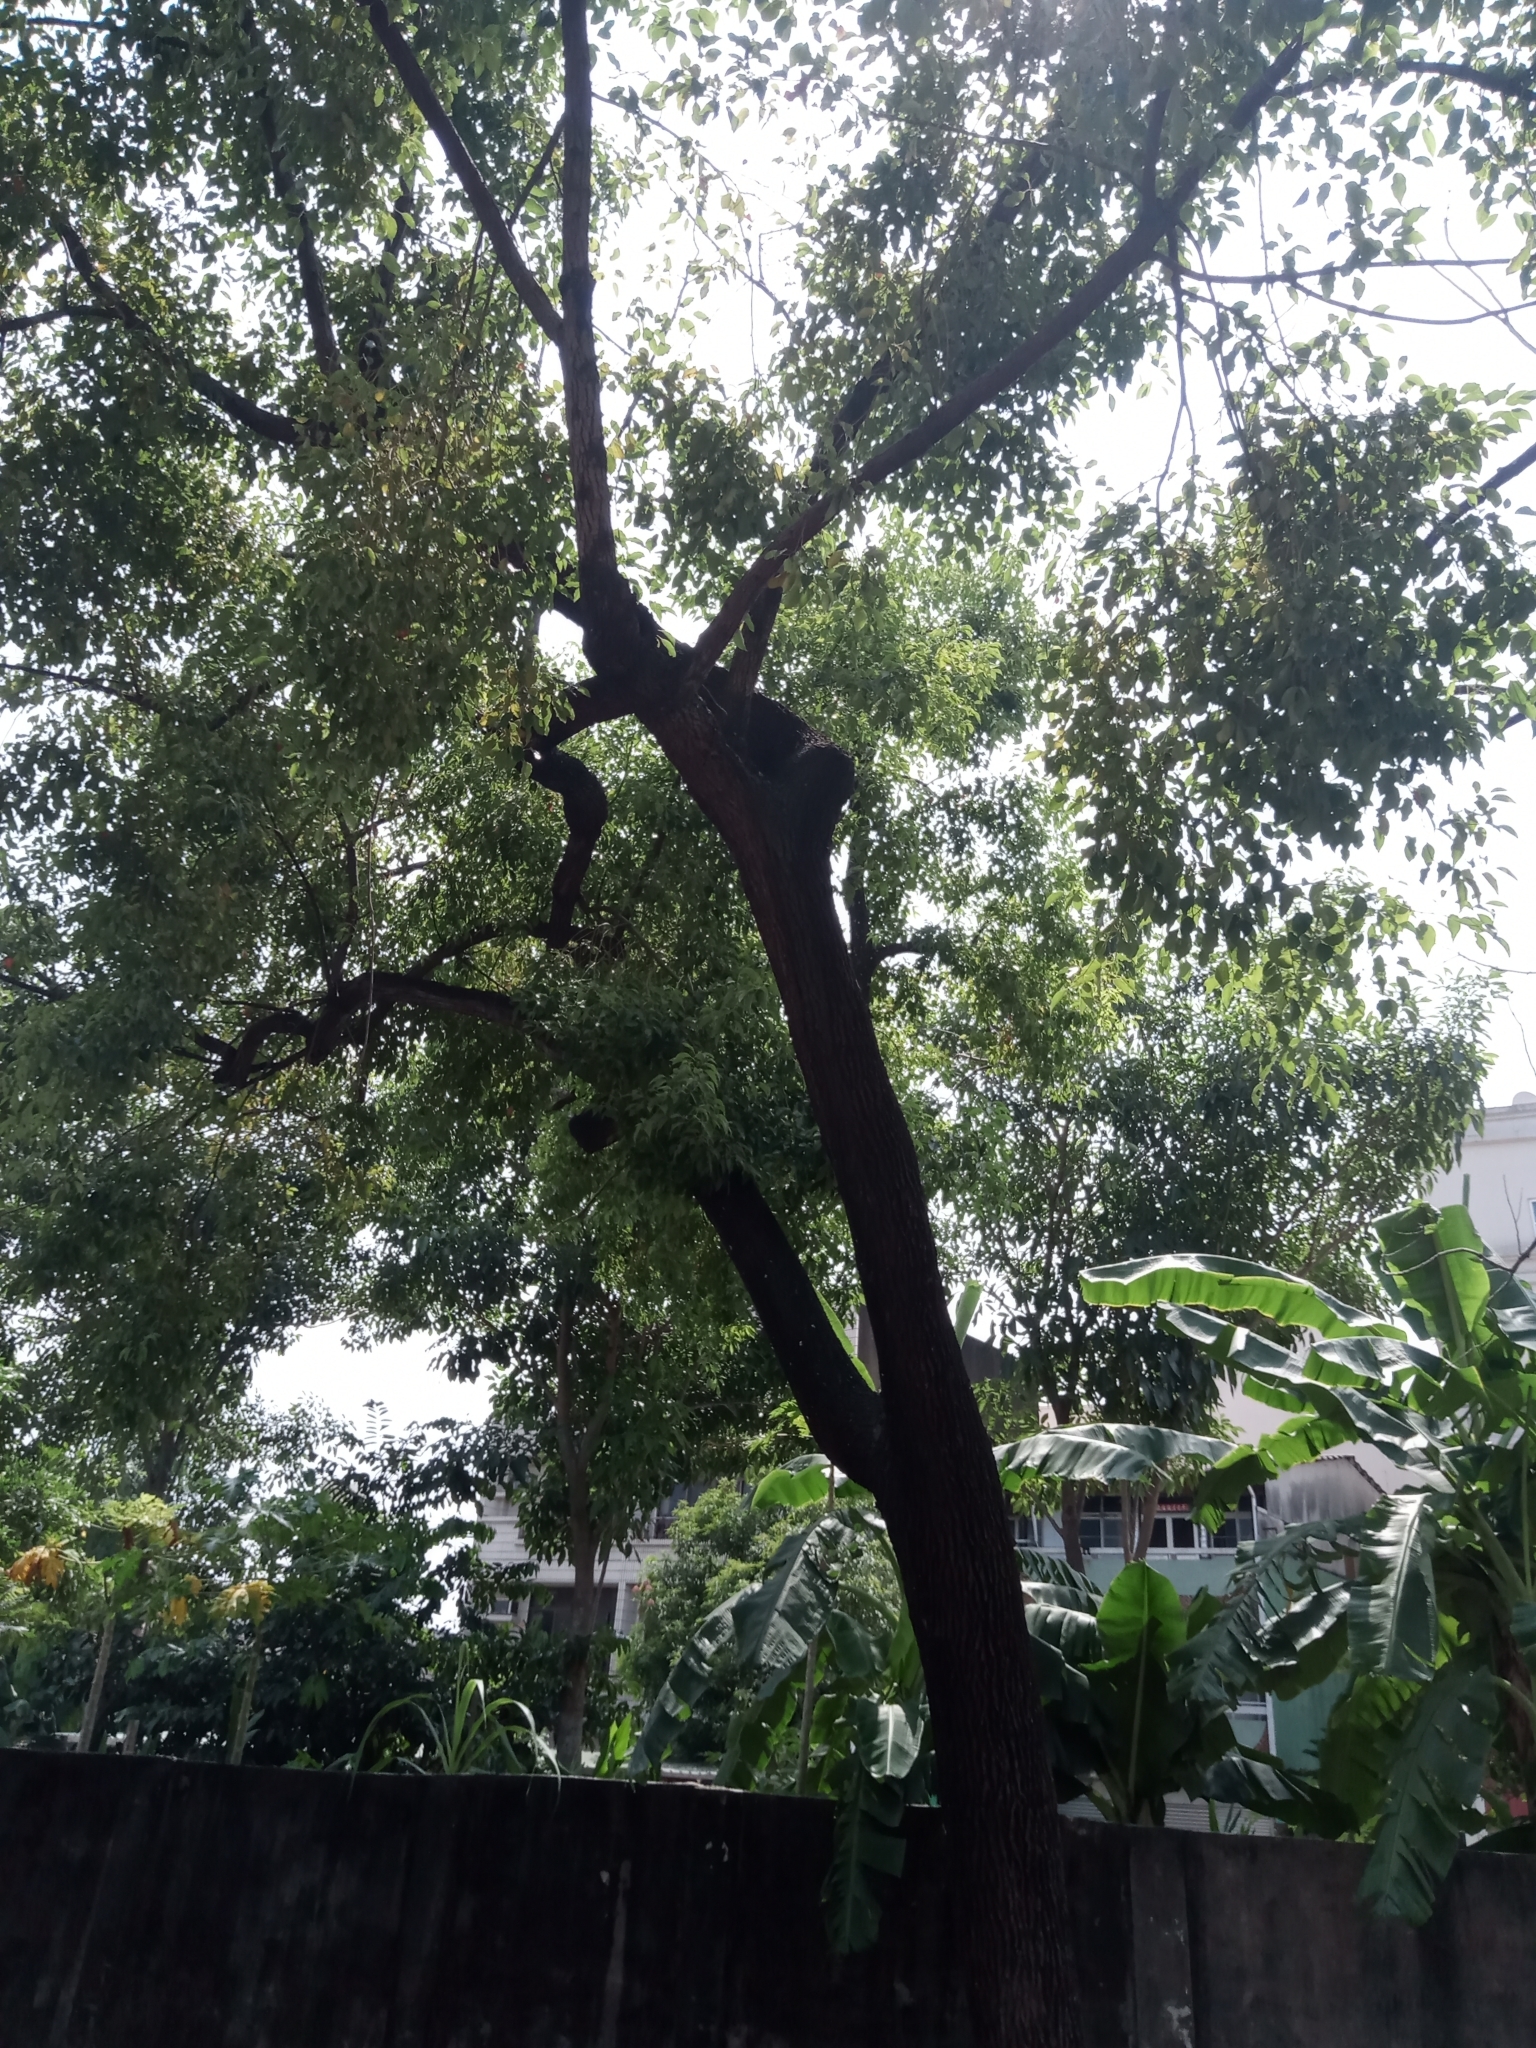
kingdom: Plantae
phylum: Tracheophyta
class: Magnoliopsida
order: Laurales
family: Lauraceae
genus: Cinnamomum
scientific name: Cinnamomum camphora
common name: Camphortree
